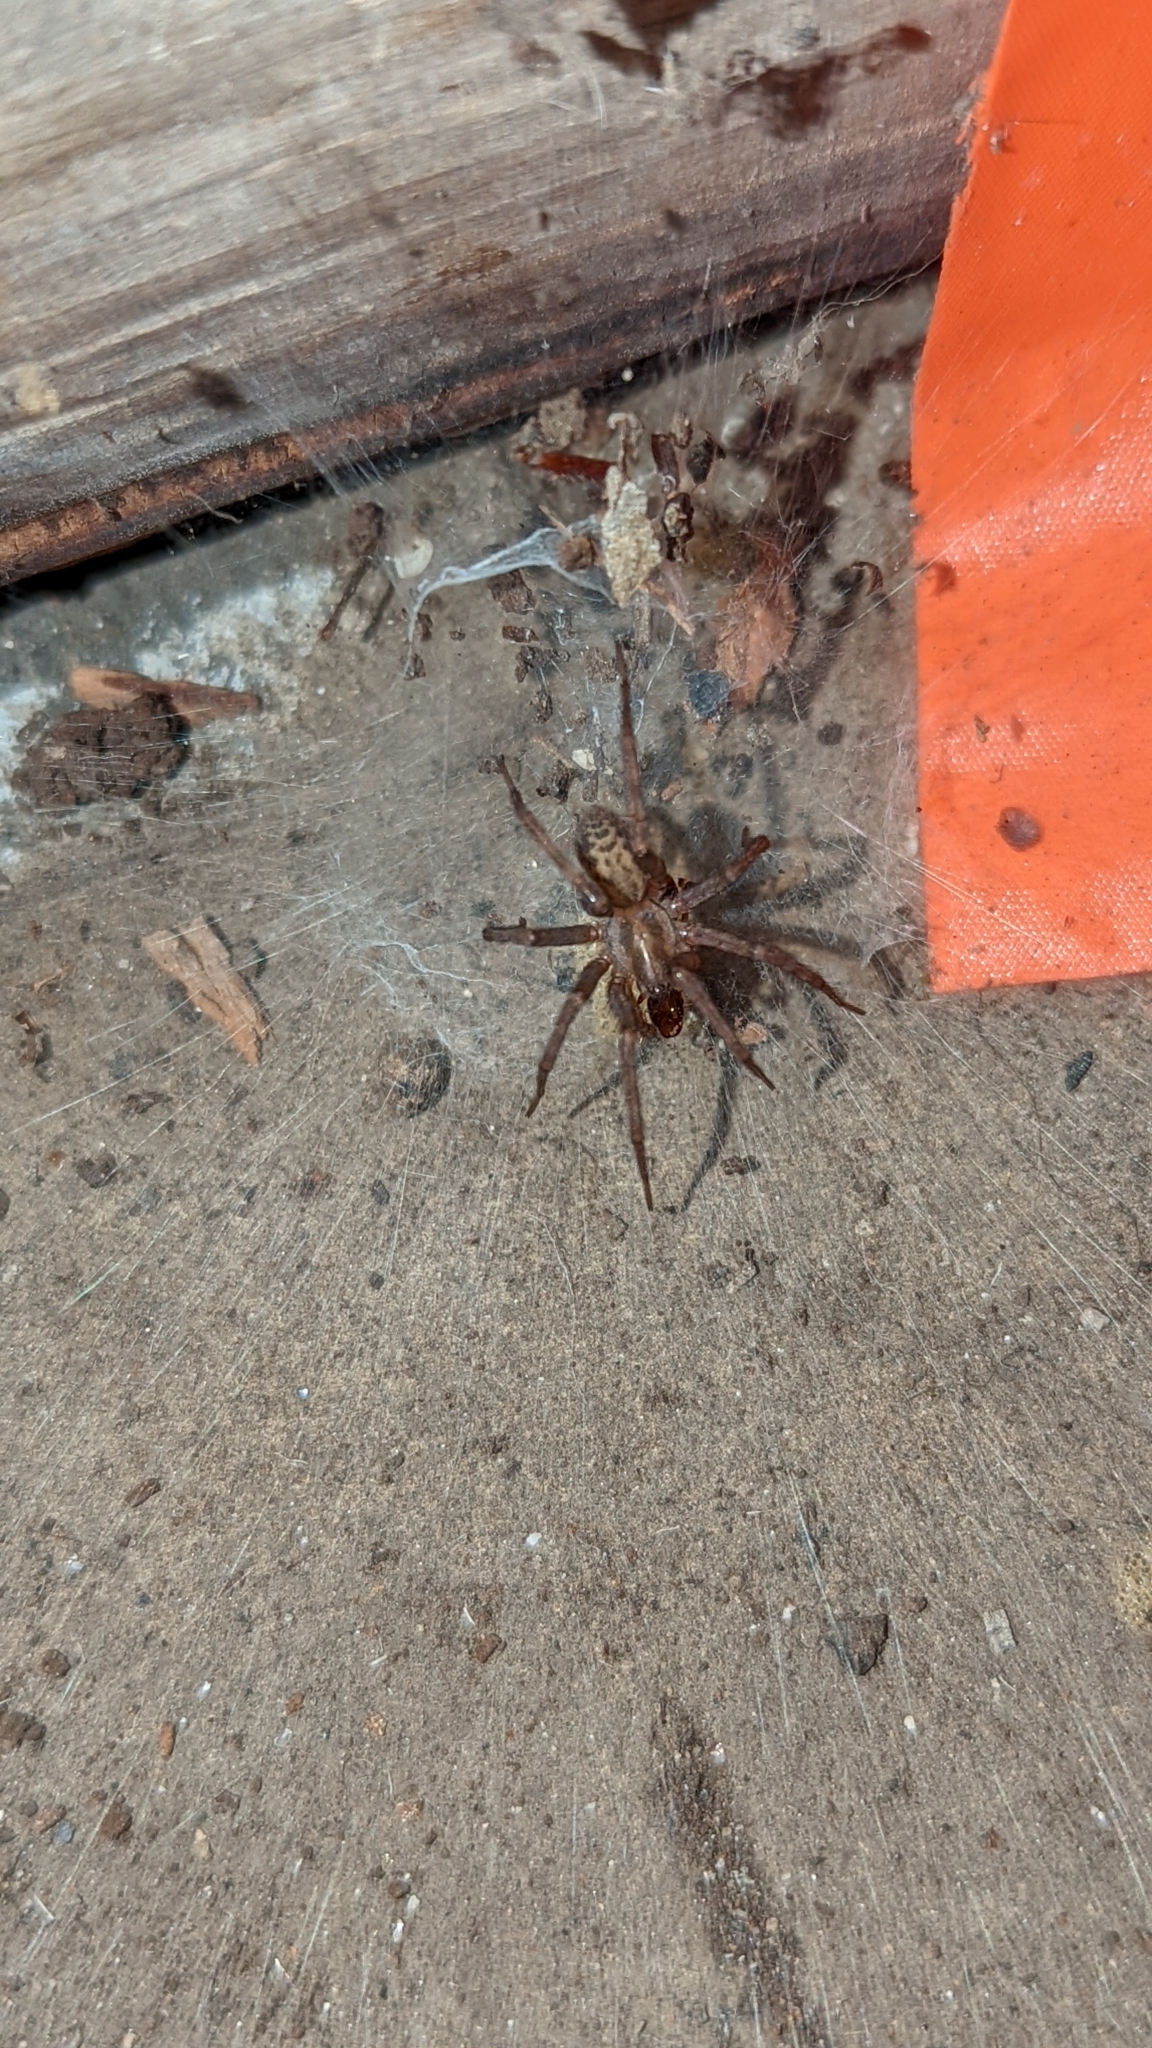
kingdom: Animalia
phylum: Arthropoda
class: Arachnida
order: Araneae
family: Agelenidae
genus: Tegenaria
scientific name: Tegenaria domestica
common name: Barn funnel weaver
